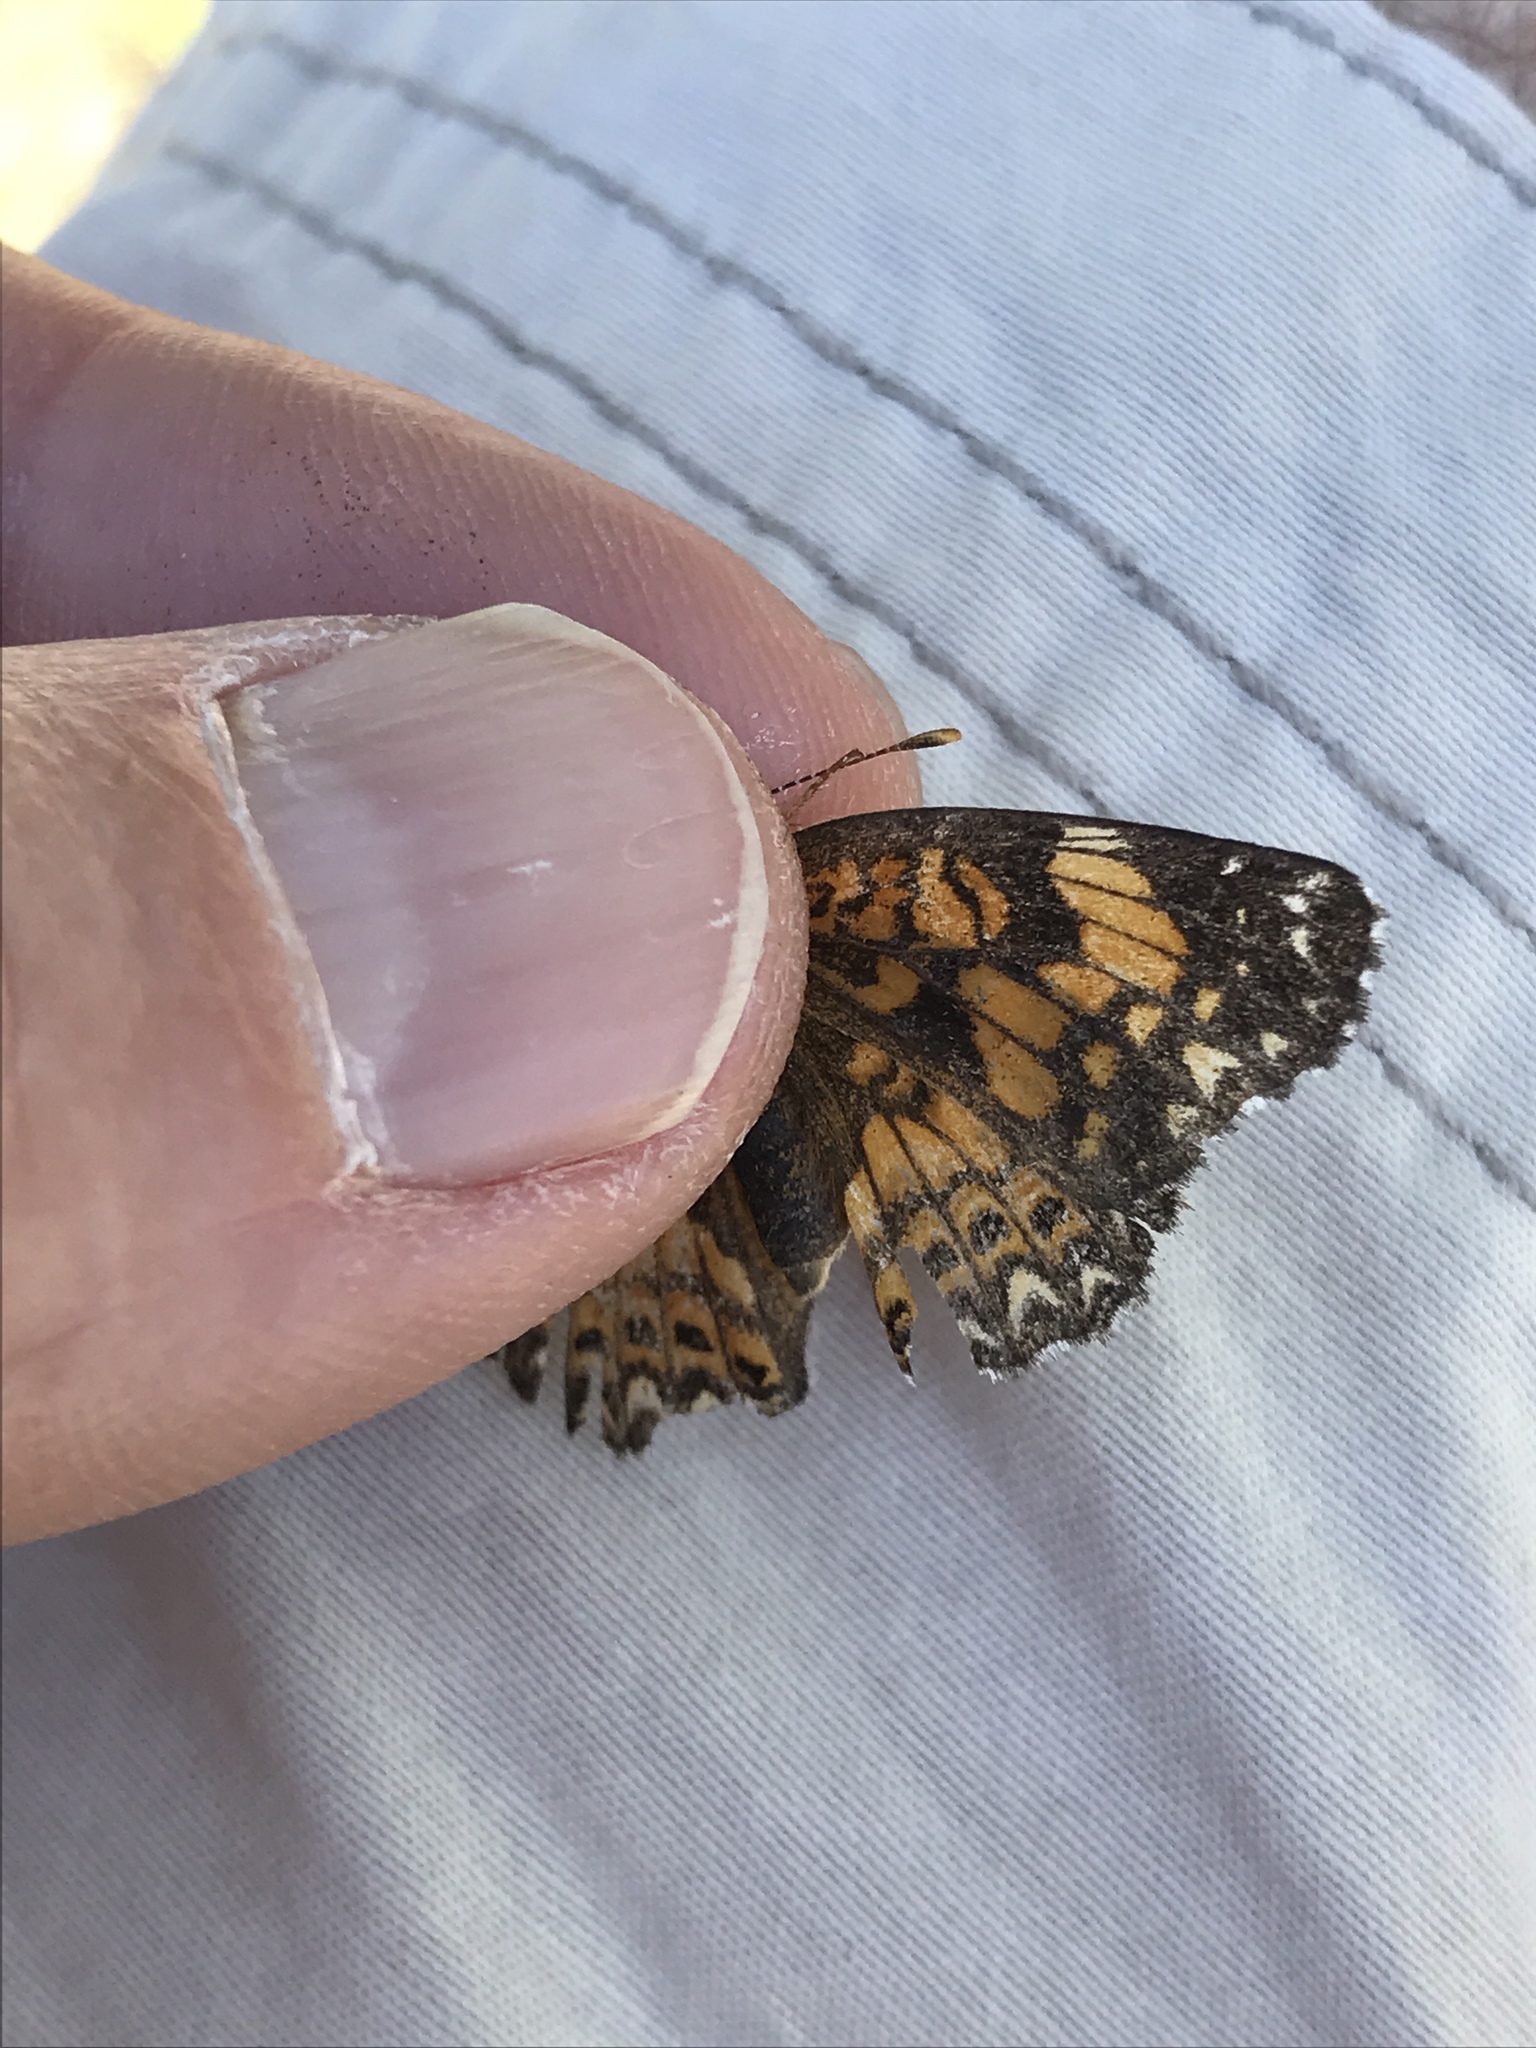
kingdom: Animalia
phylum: Arthropoda
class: Insecta
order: Lepidoptera
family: Nymphalidae
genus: Chlosyne
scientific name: Chlosyne gorgone
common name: Gorgone checkerspot
